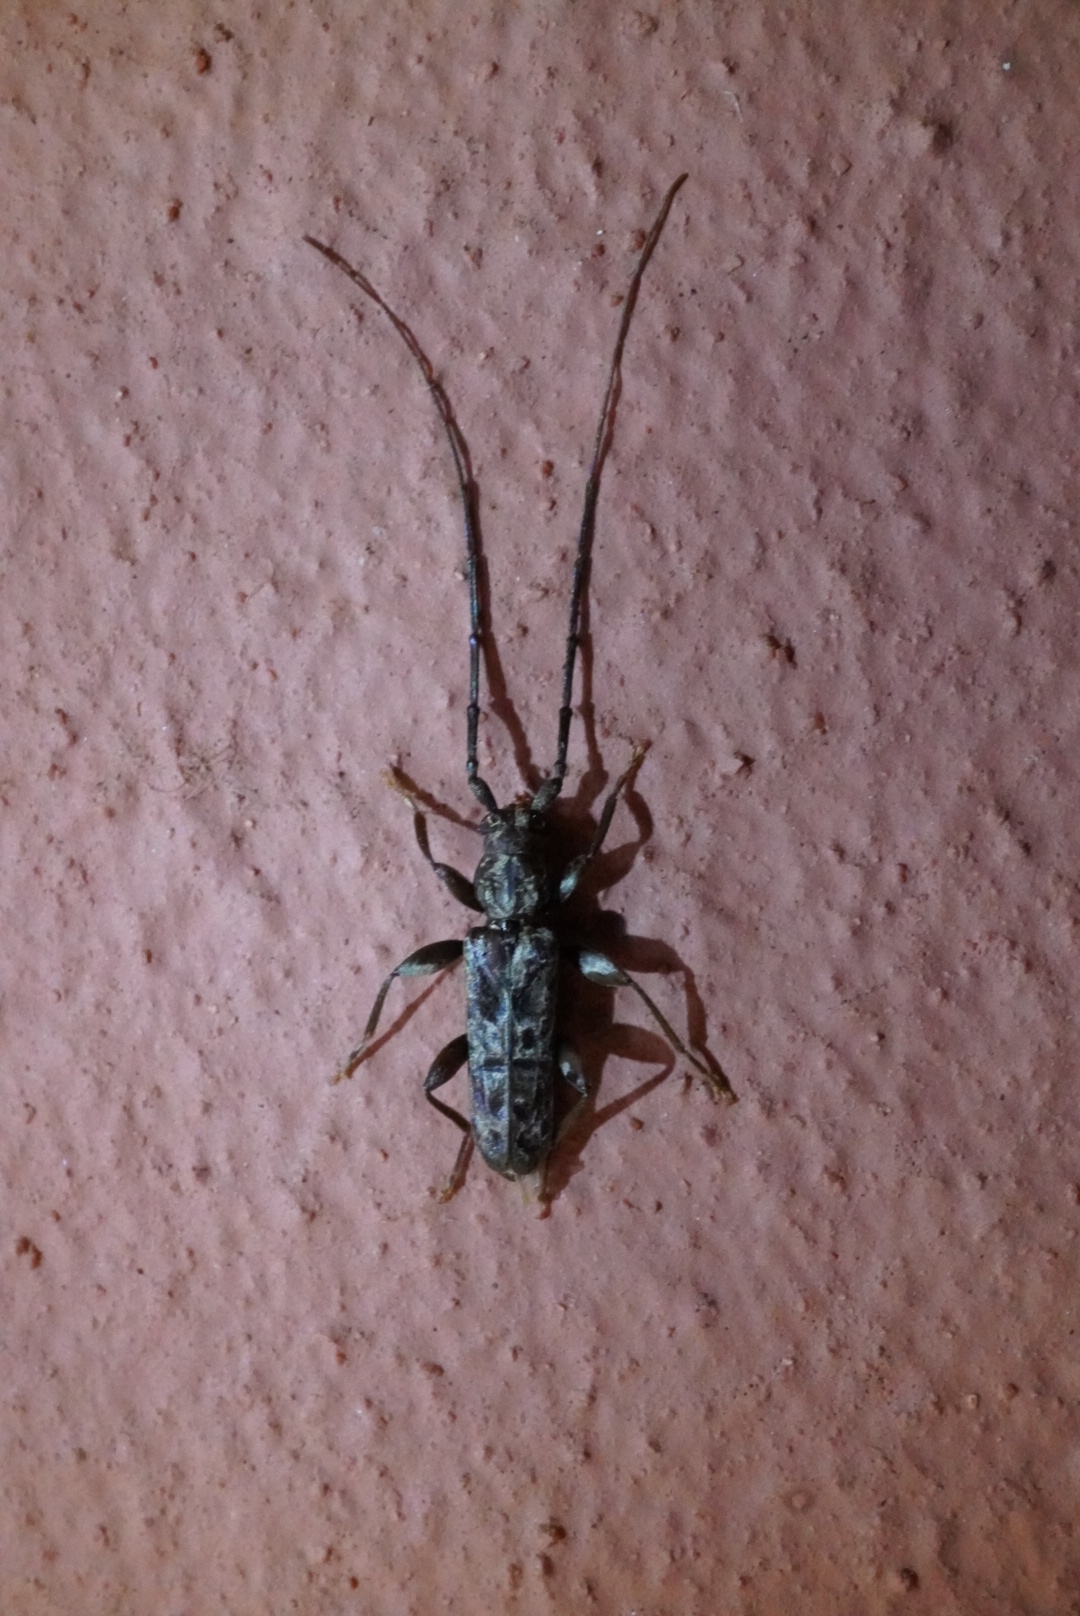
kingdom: Animalia
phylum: Arthropoda
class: Insecta
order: Coleoptera
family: Cerambycidae
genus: Pelossus
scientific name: Pelossus clarki
